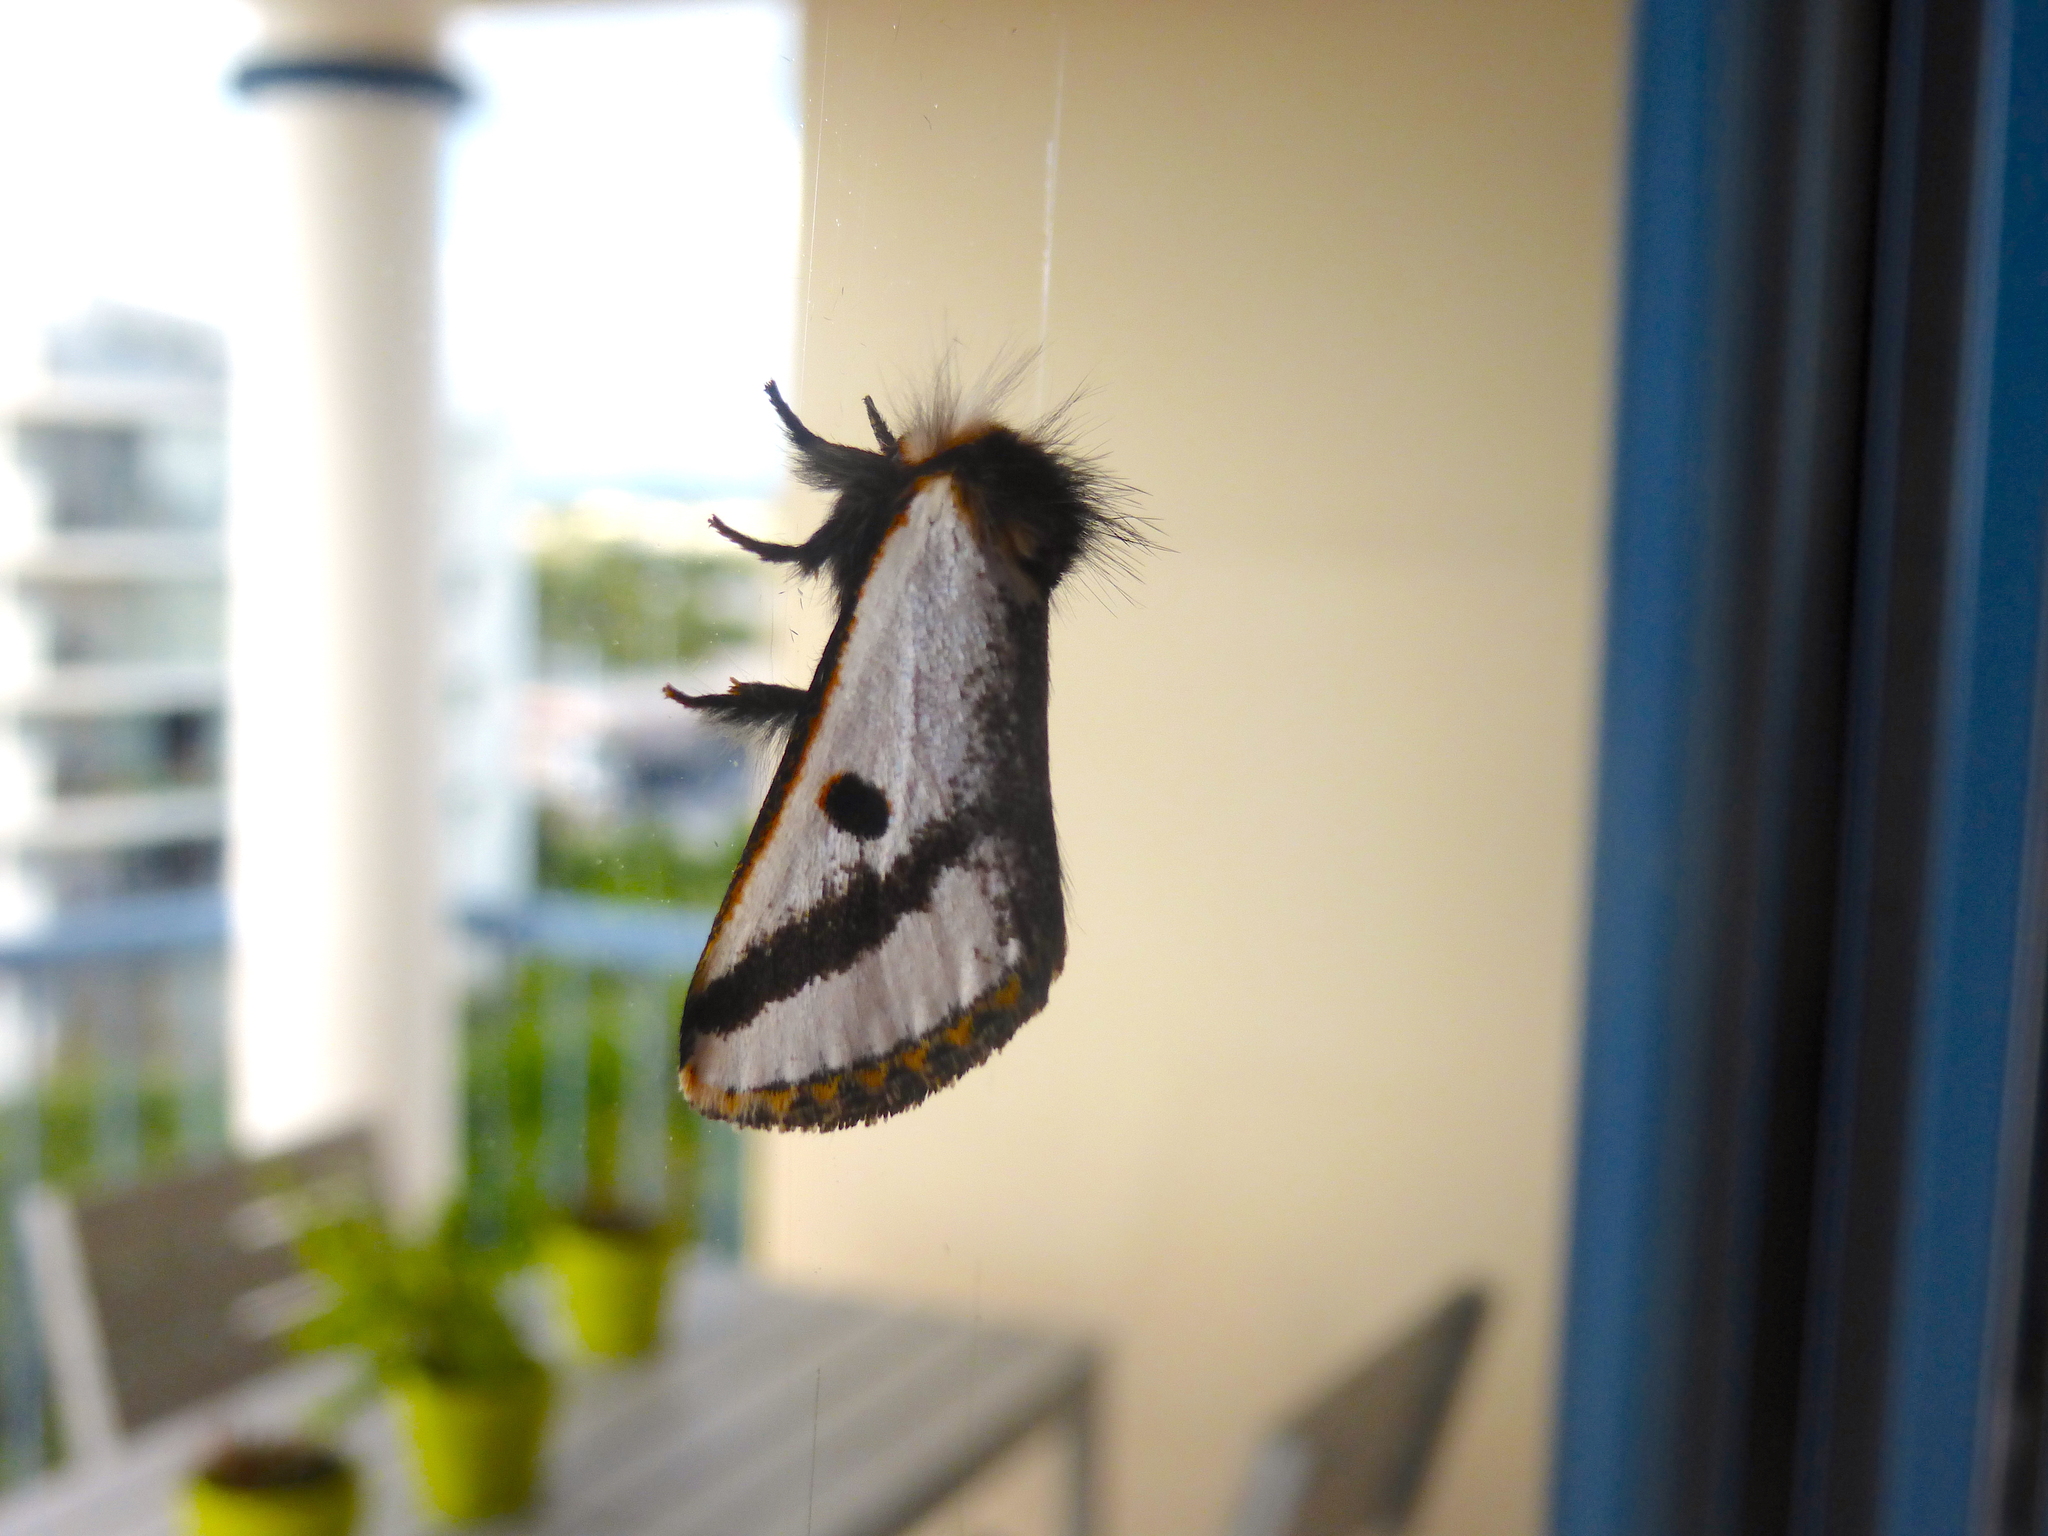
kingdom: Animalia
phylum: Arthropoda
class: Insecta
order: Lepidoptera
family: Notodontidae
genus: Epicoma
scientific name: Epicoma melanospila
